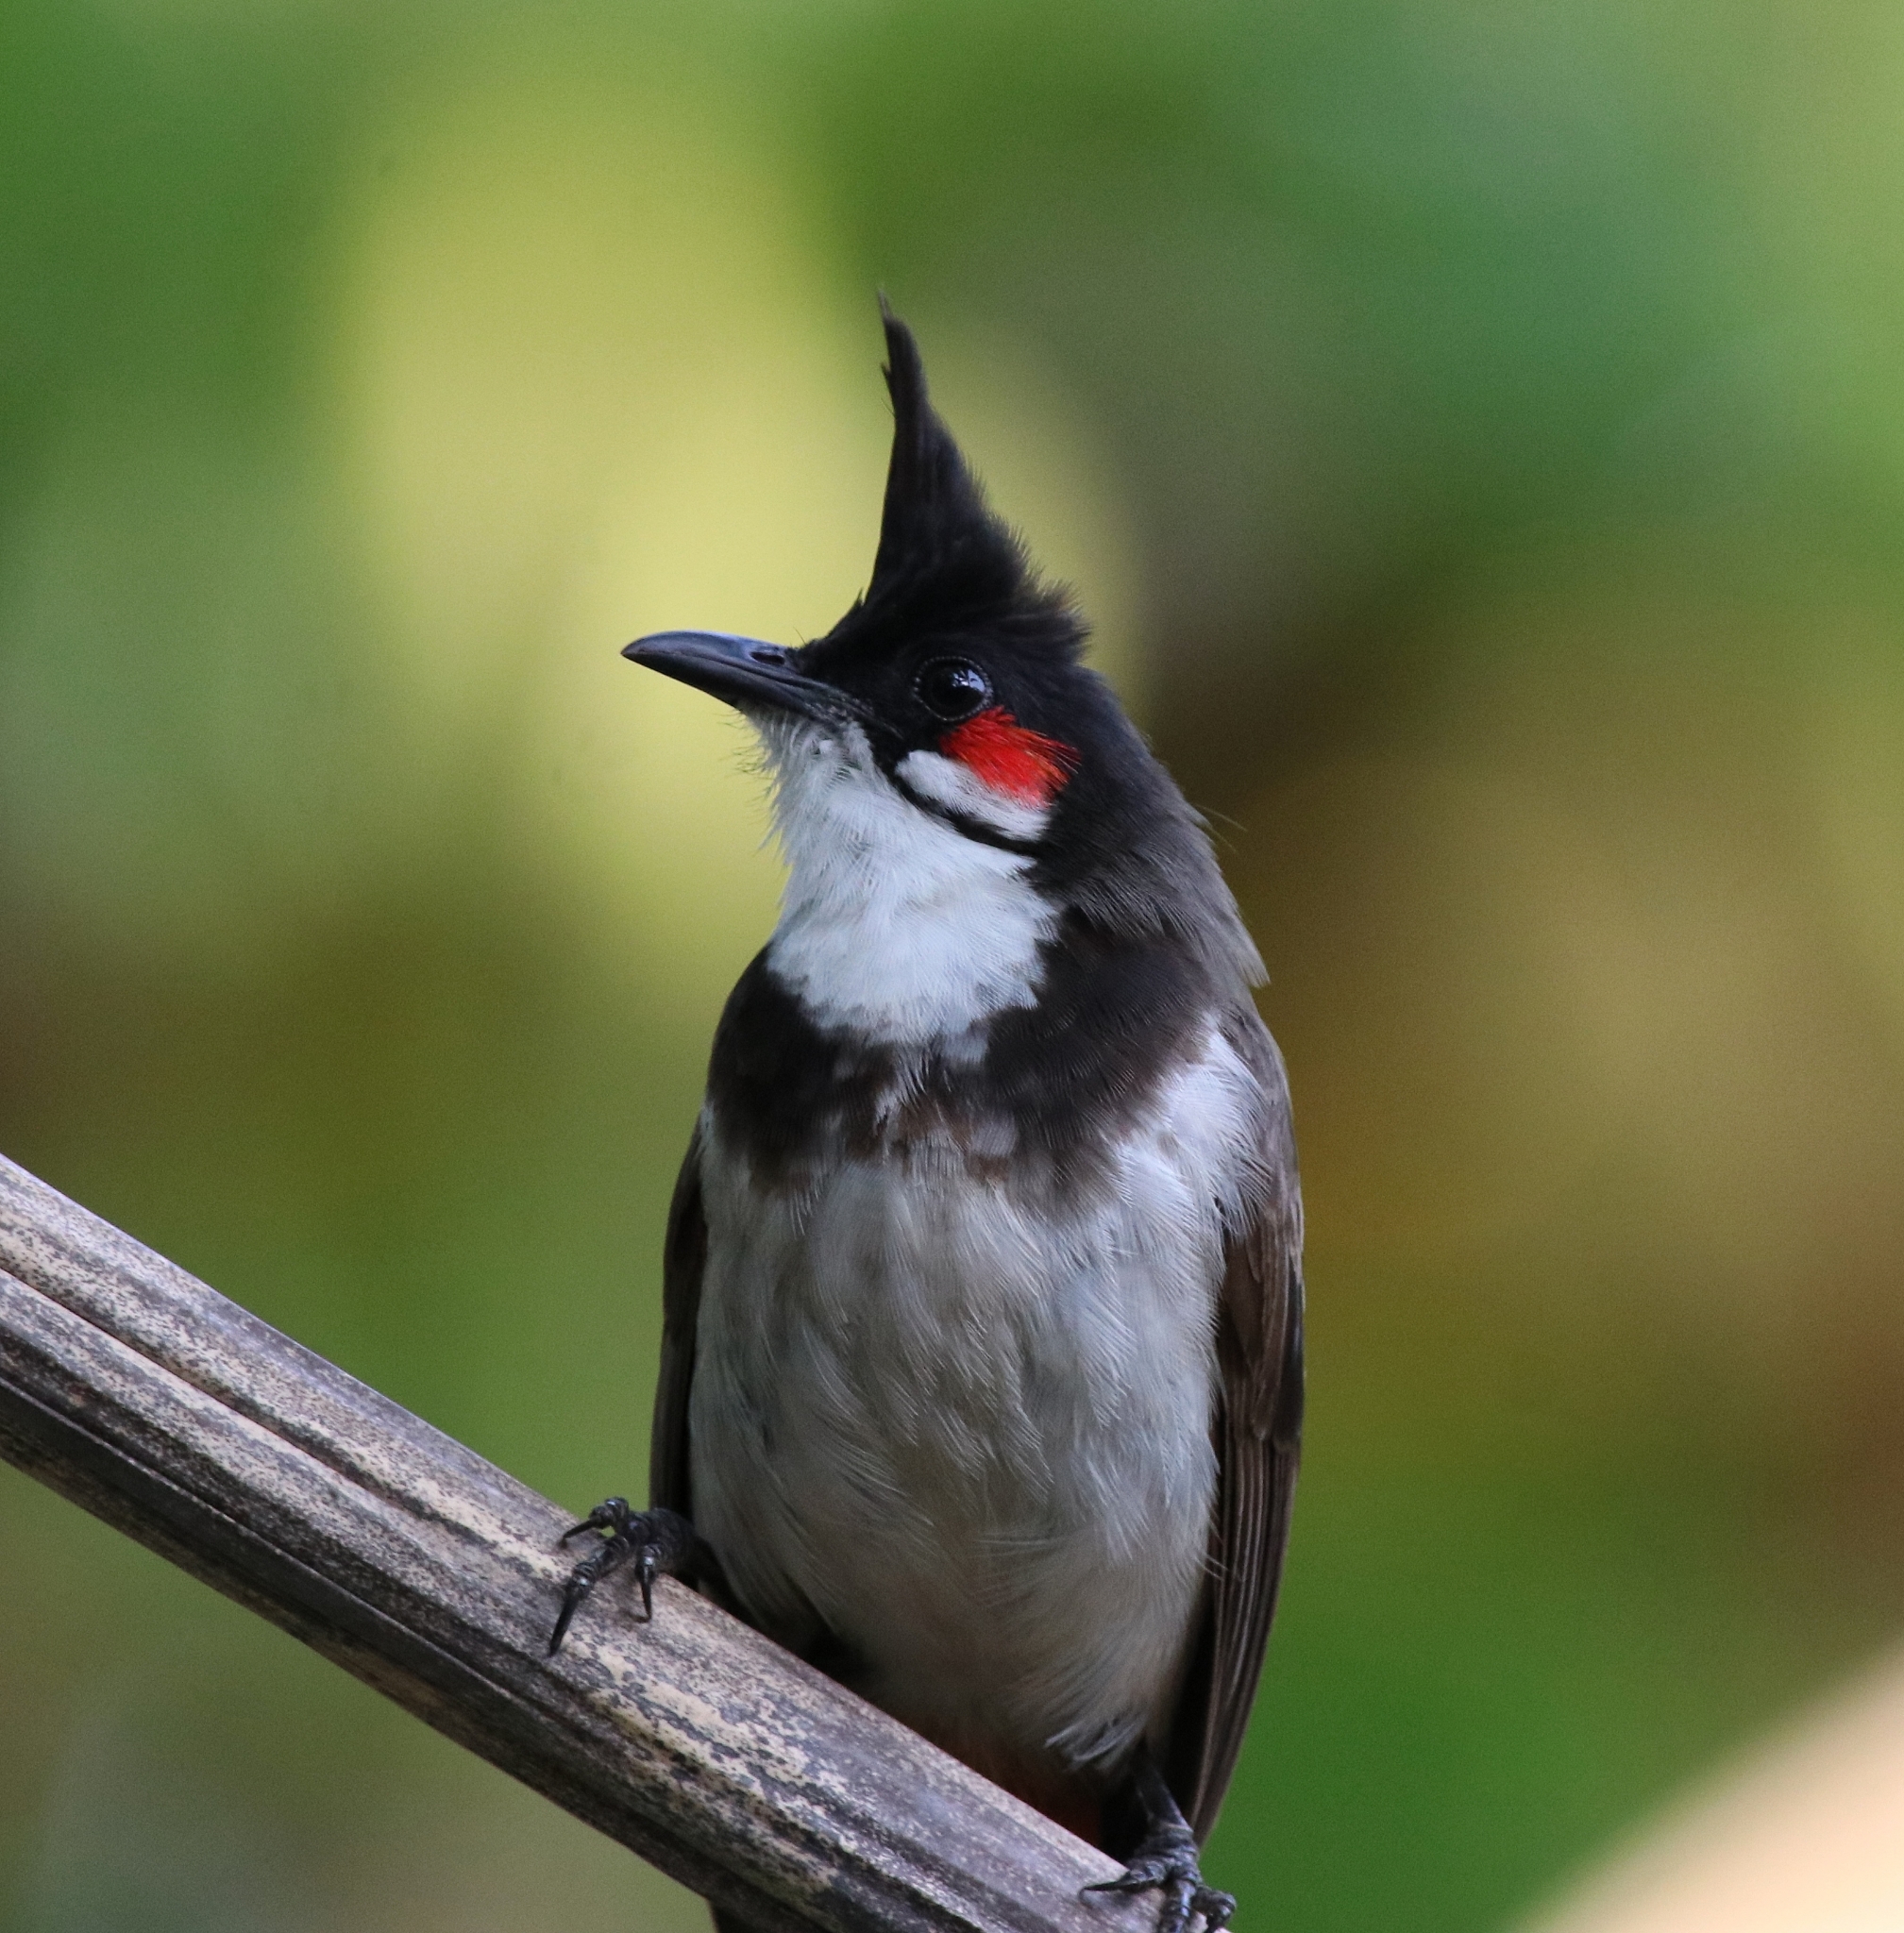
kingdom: Animalia
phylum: Chordata
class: Aves
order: Passeriformes
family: Pycnonotidae
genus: Pycnonotus
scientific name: Pycnonotus jocosus
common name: Red-whiskered bulbul
